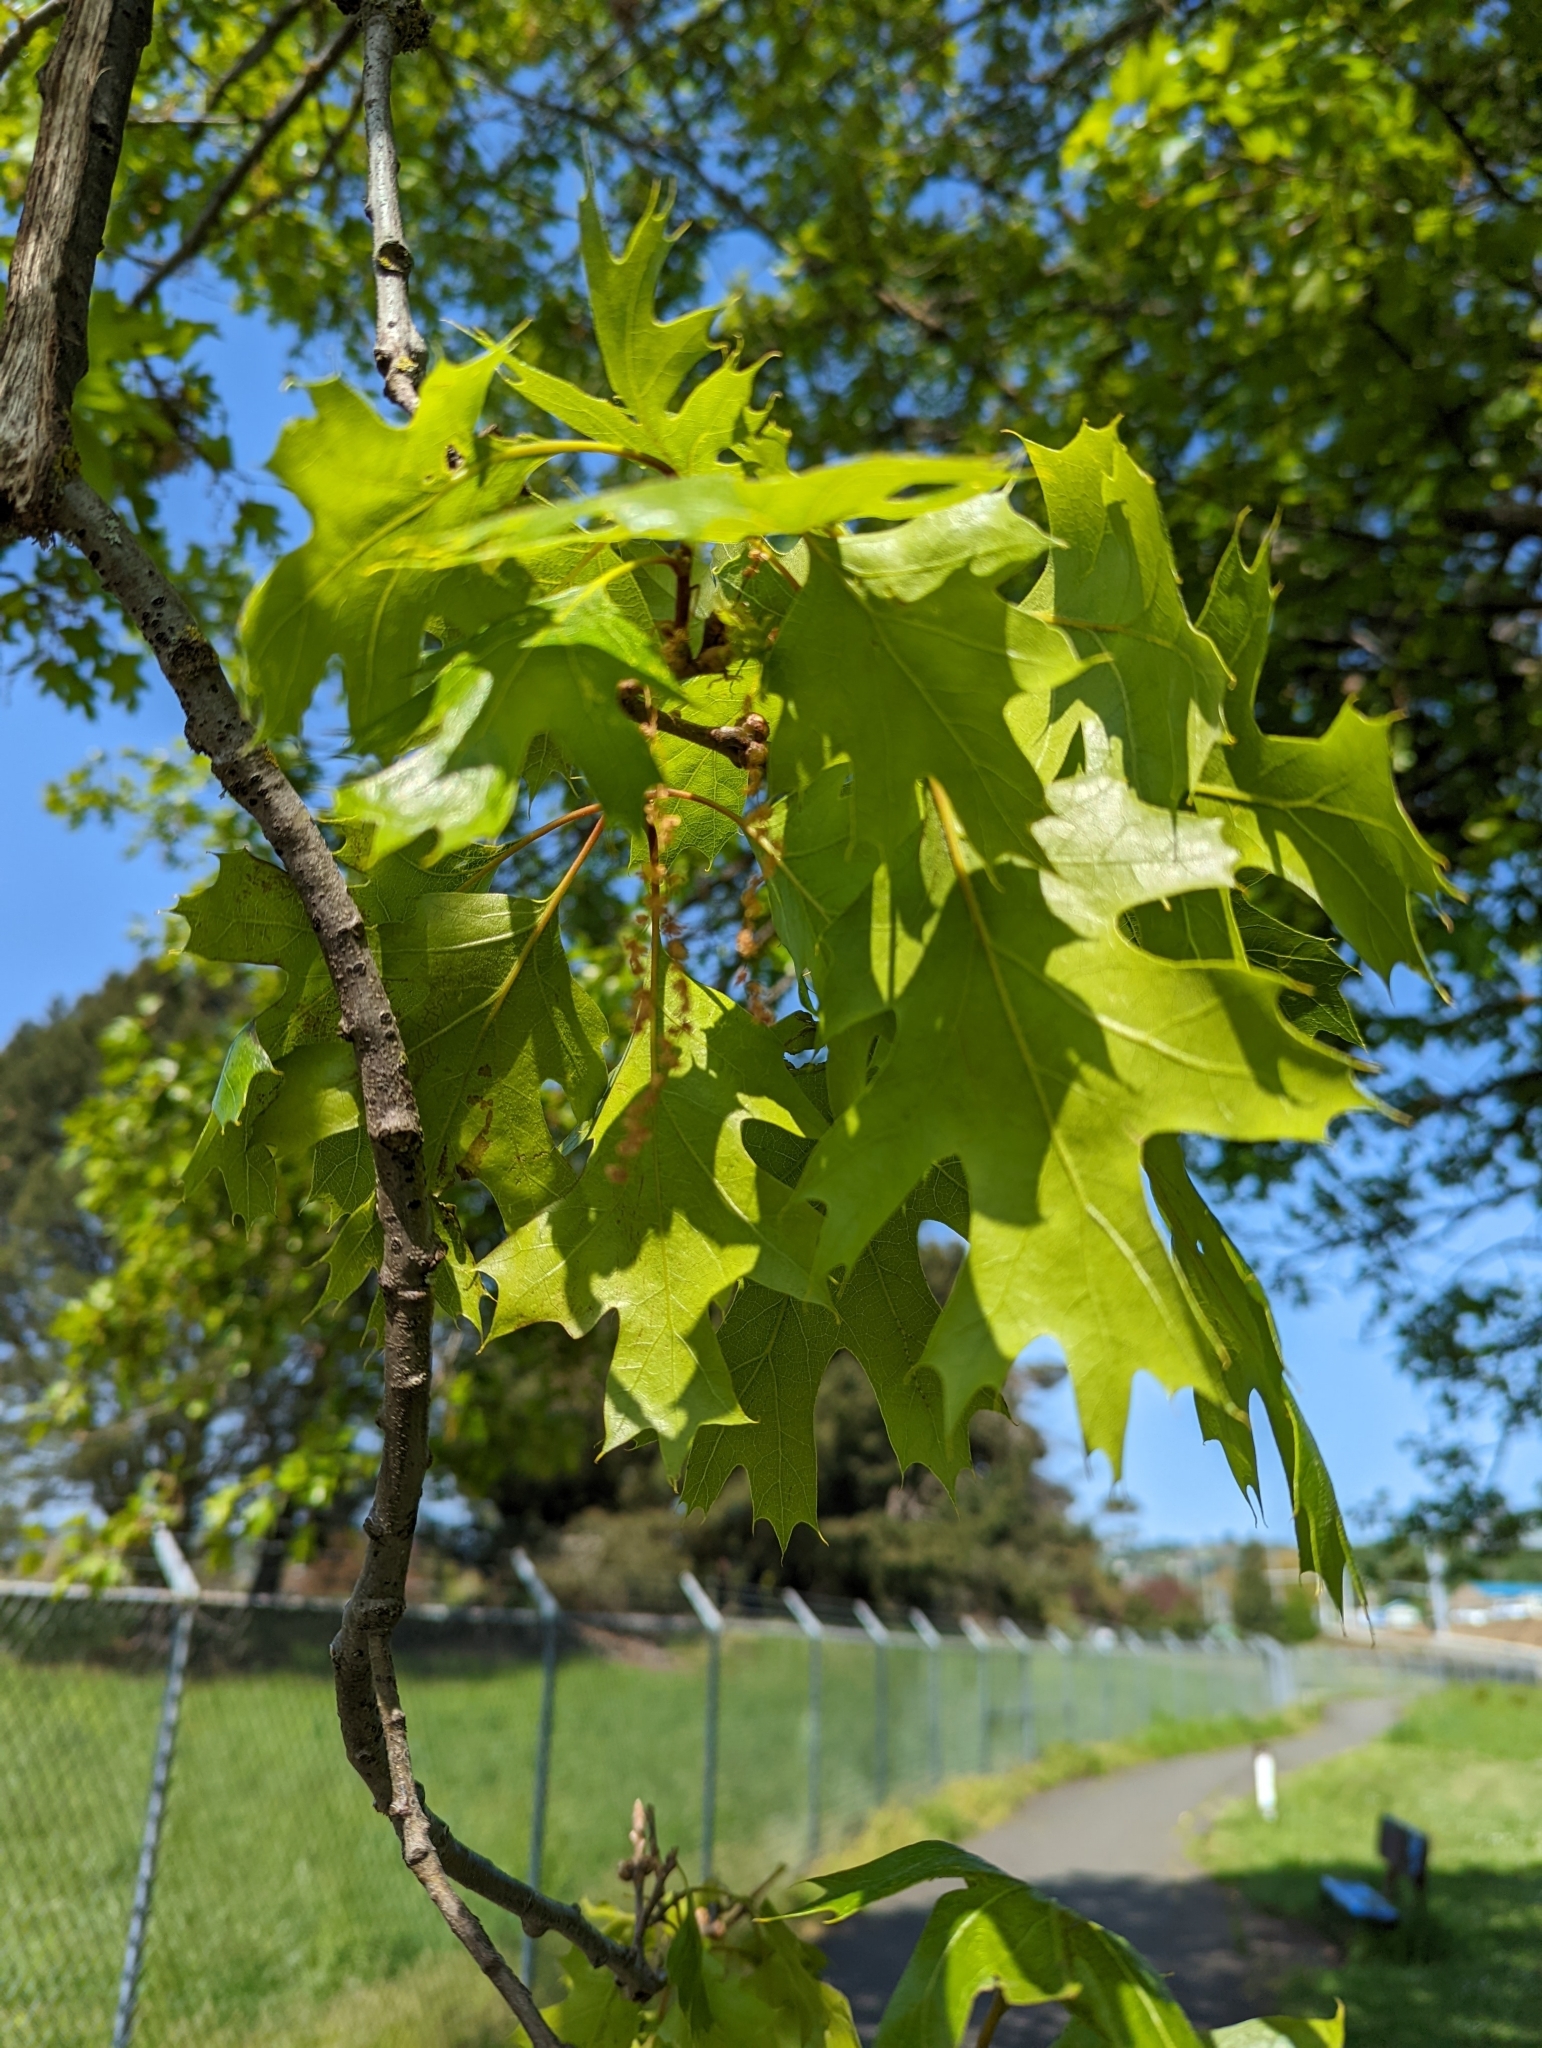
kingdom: Plantae
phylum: Tracheophyta
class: Magnoliopsida
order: Fagales
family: Fagaceae
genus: Quercus
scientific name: Quercus kelloggii
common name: California black oak
